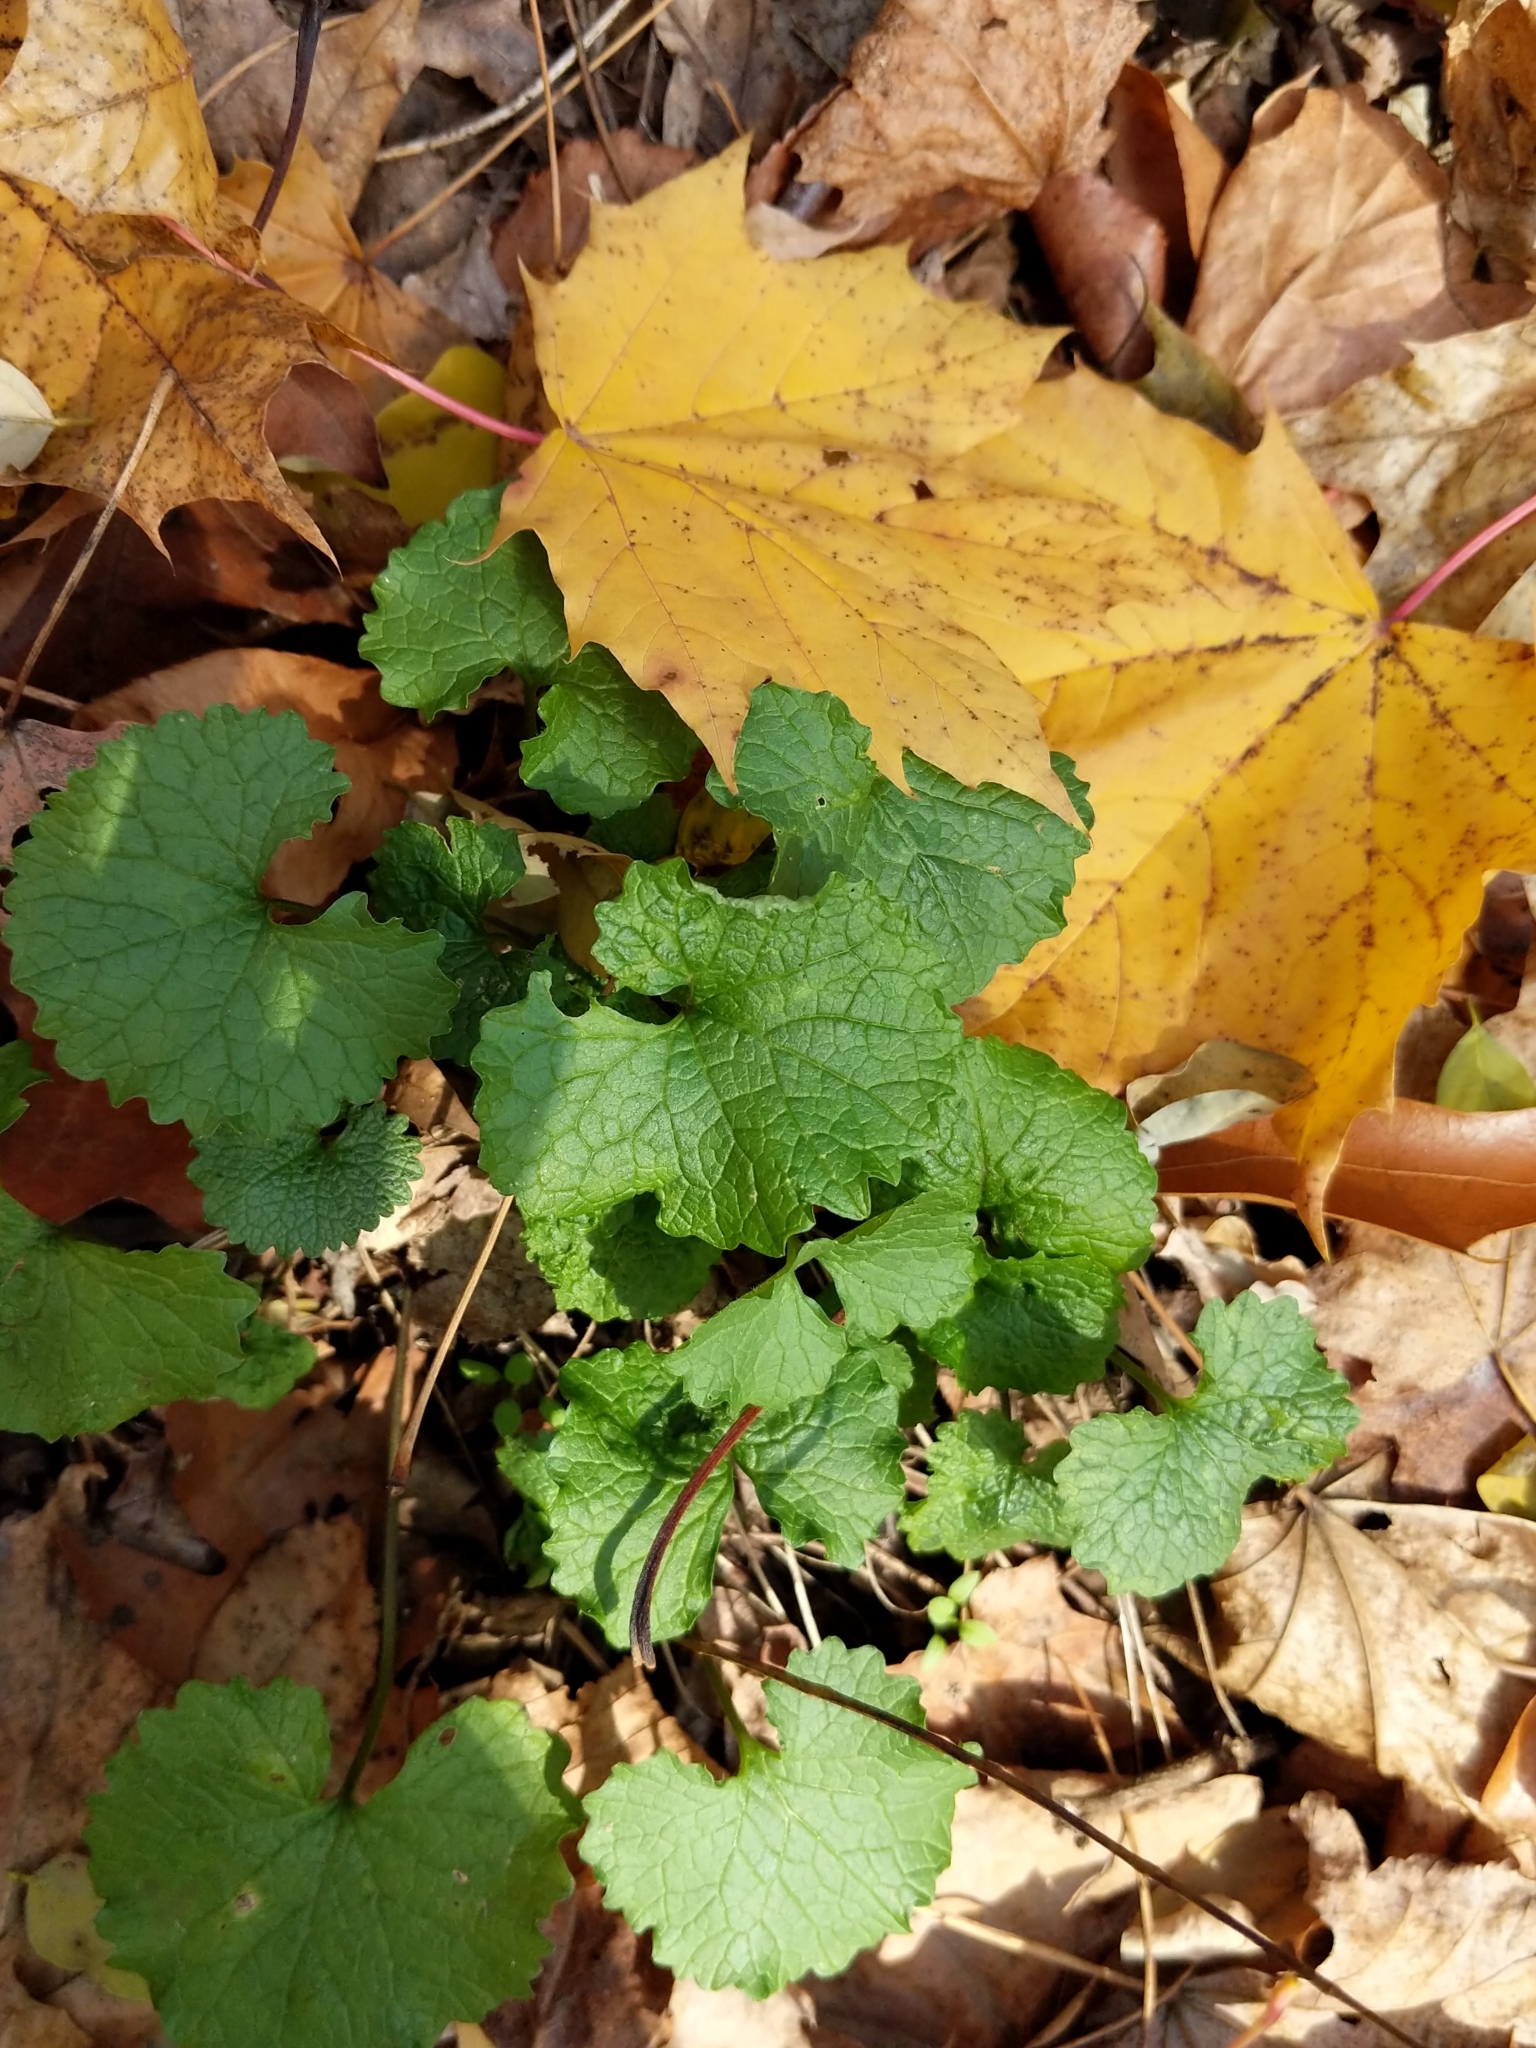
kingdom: Plantae
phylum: Tracheophyta
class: Magnoliopsida
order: Brassicales
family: Brassicaceae
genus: Alliaria
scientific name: Alliaria petiolata
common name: Garlic mustard
